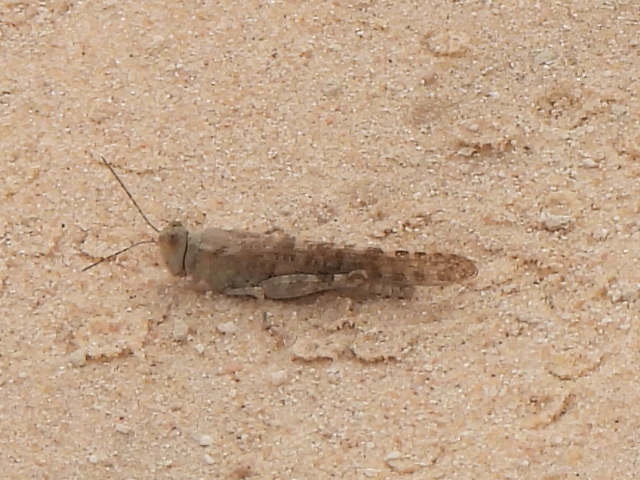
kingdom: Animalia
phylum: Arthropoda
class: Insecta
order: Orthoptera
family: Acrididae
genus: Sphingonotus
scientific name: Sphingonotus rubescens
